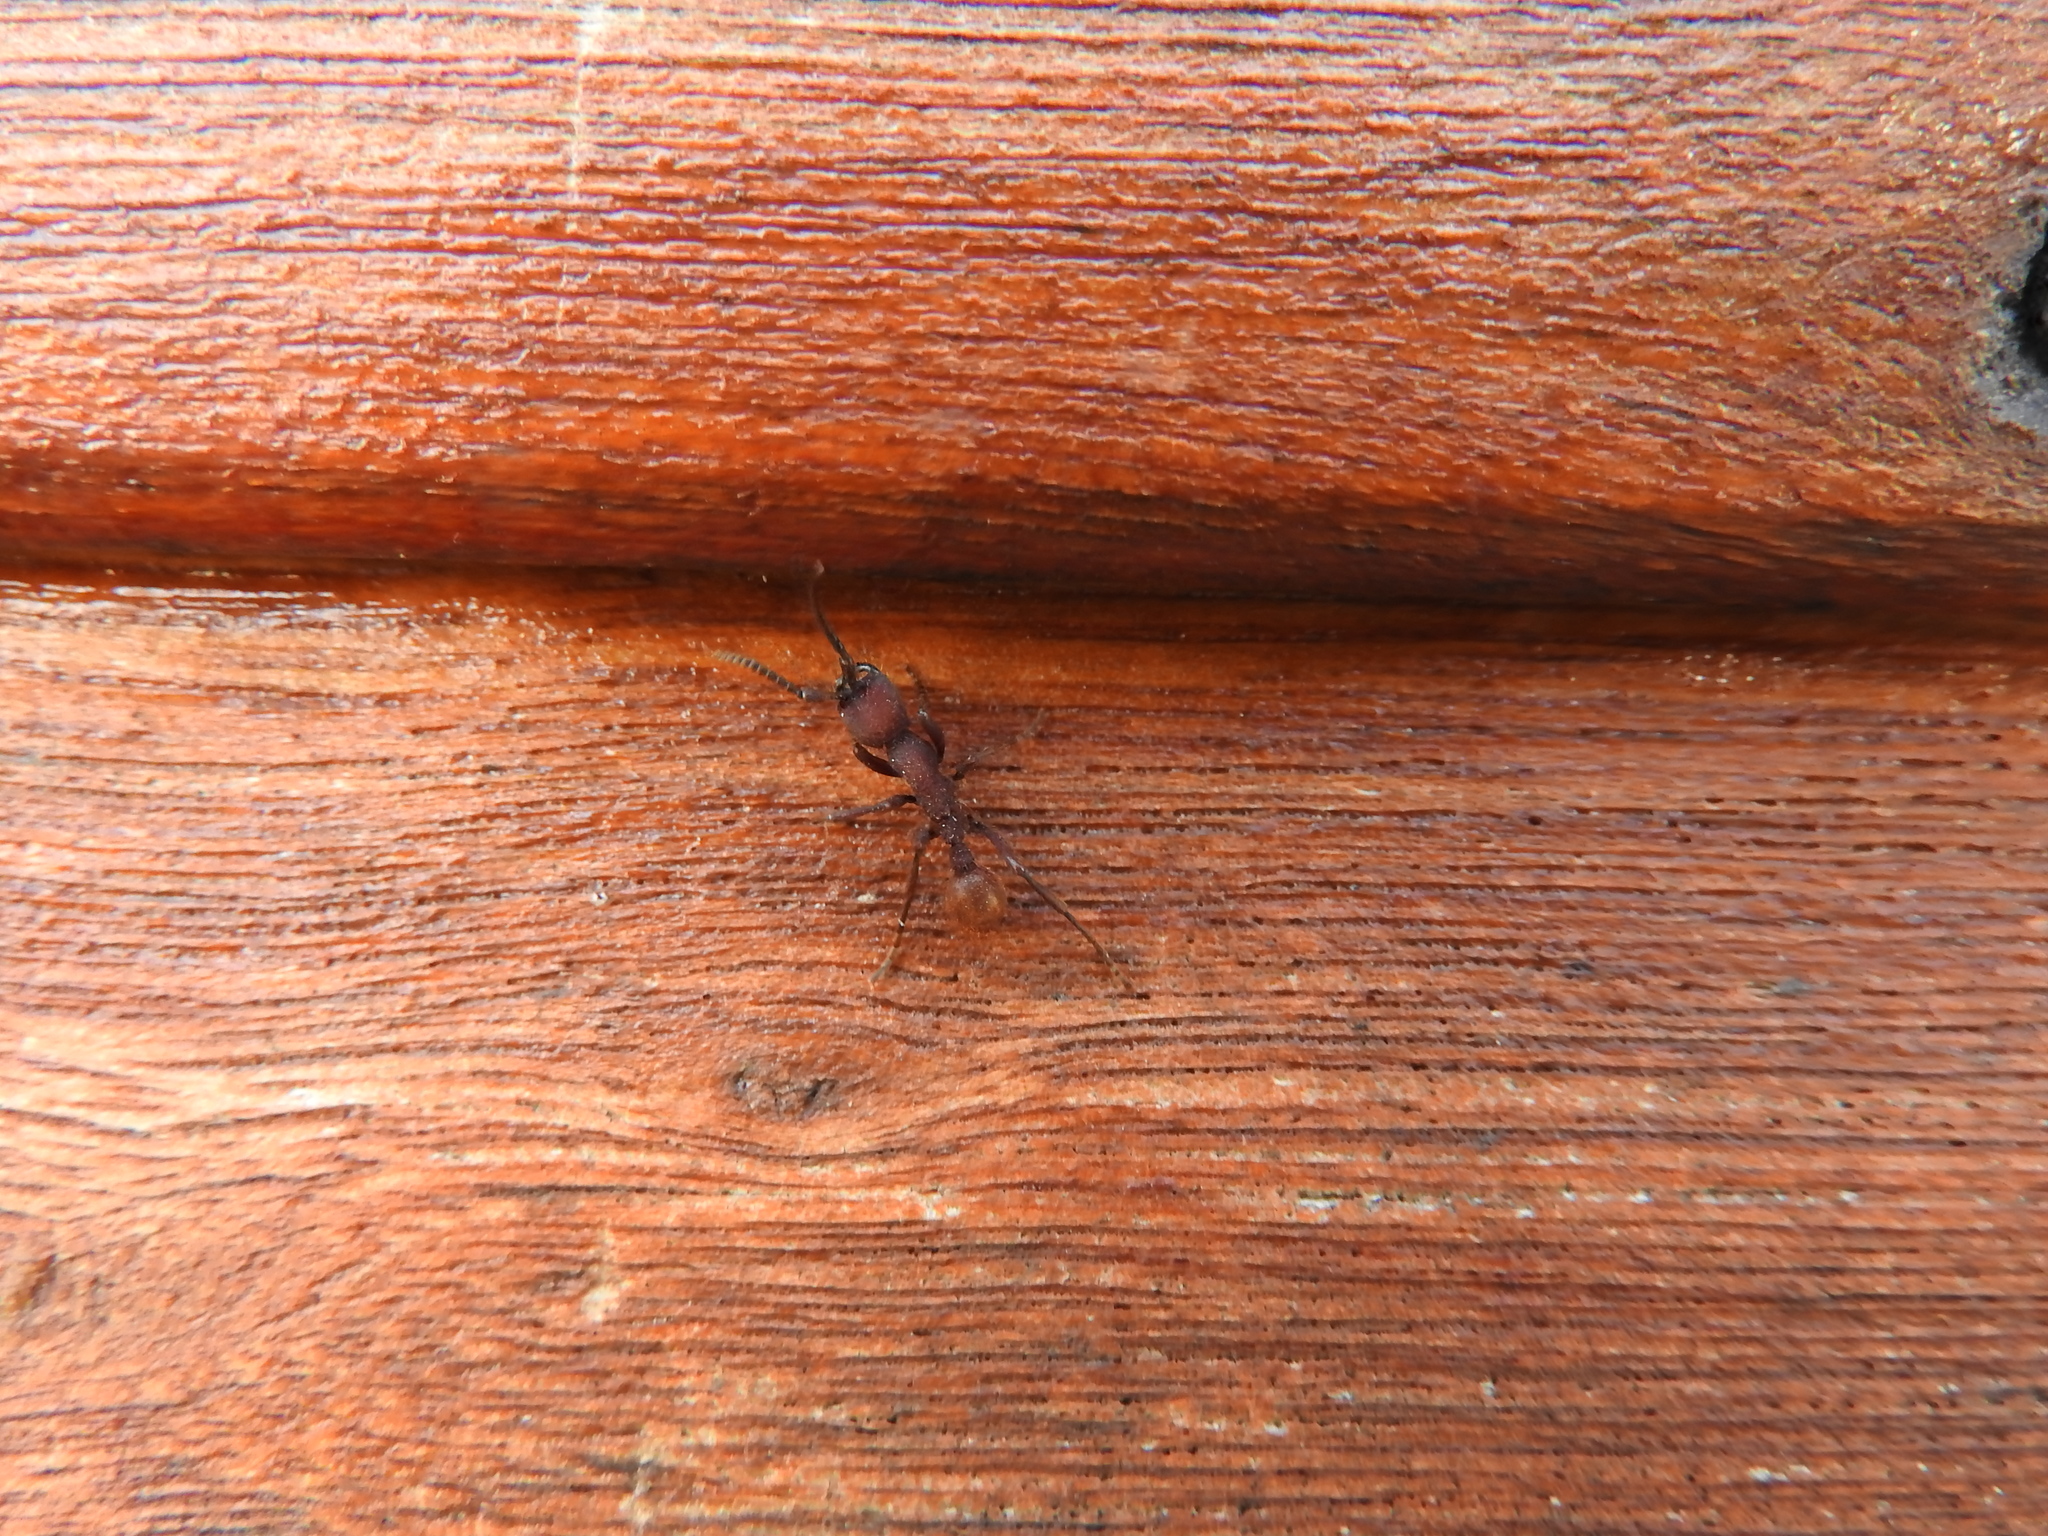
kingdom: Animalia
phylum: Arthropoda
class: Insecta
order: Hymenoptera
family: Formicidae
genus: Nomamyrmex
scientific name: Nomamyrmex esenbeckii
